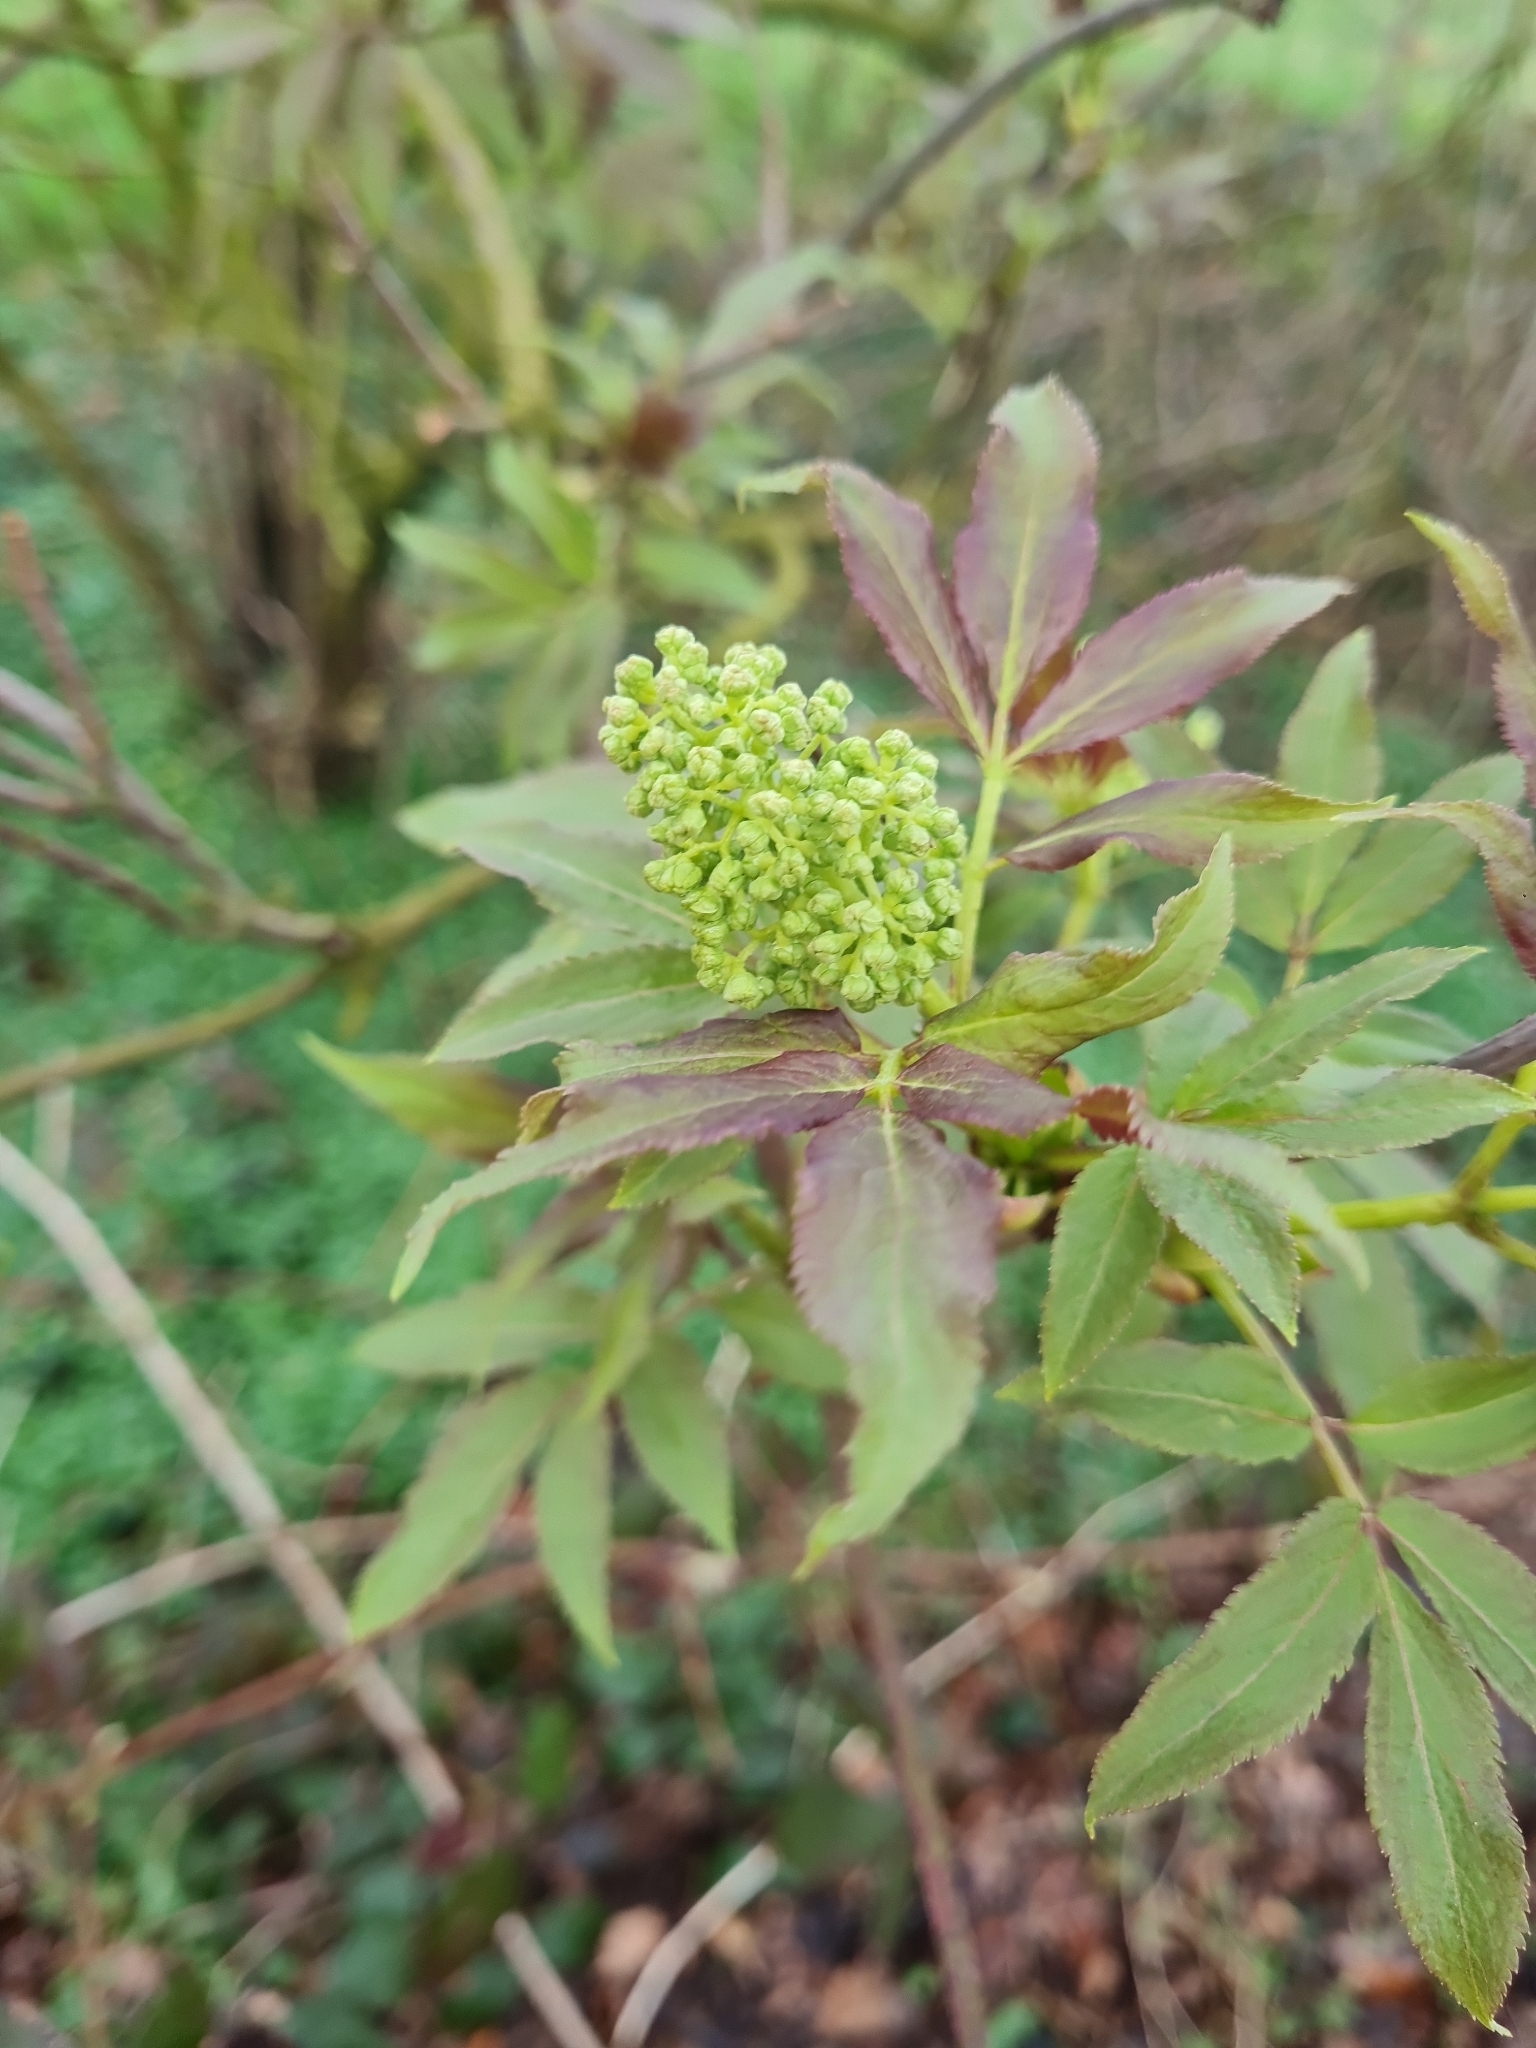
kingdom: Plantae
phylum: Tracheophyta
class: Magnoliopsida
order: Dipsacales
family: Viburnaceae
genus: Sambucus
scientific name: Sambucus racemosa
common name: Red-berried elder
